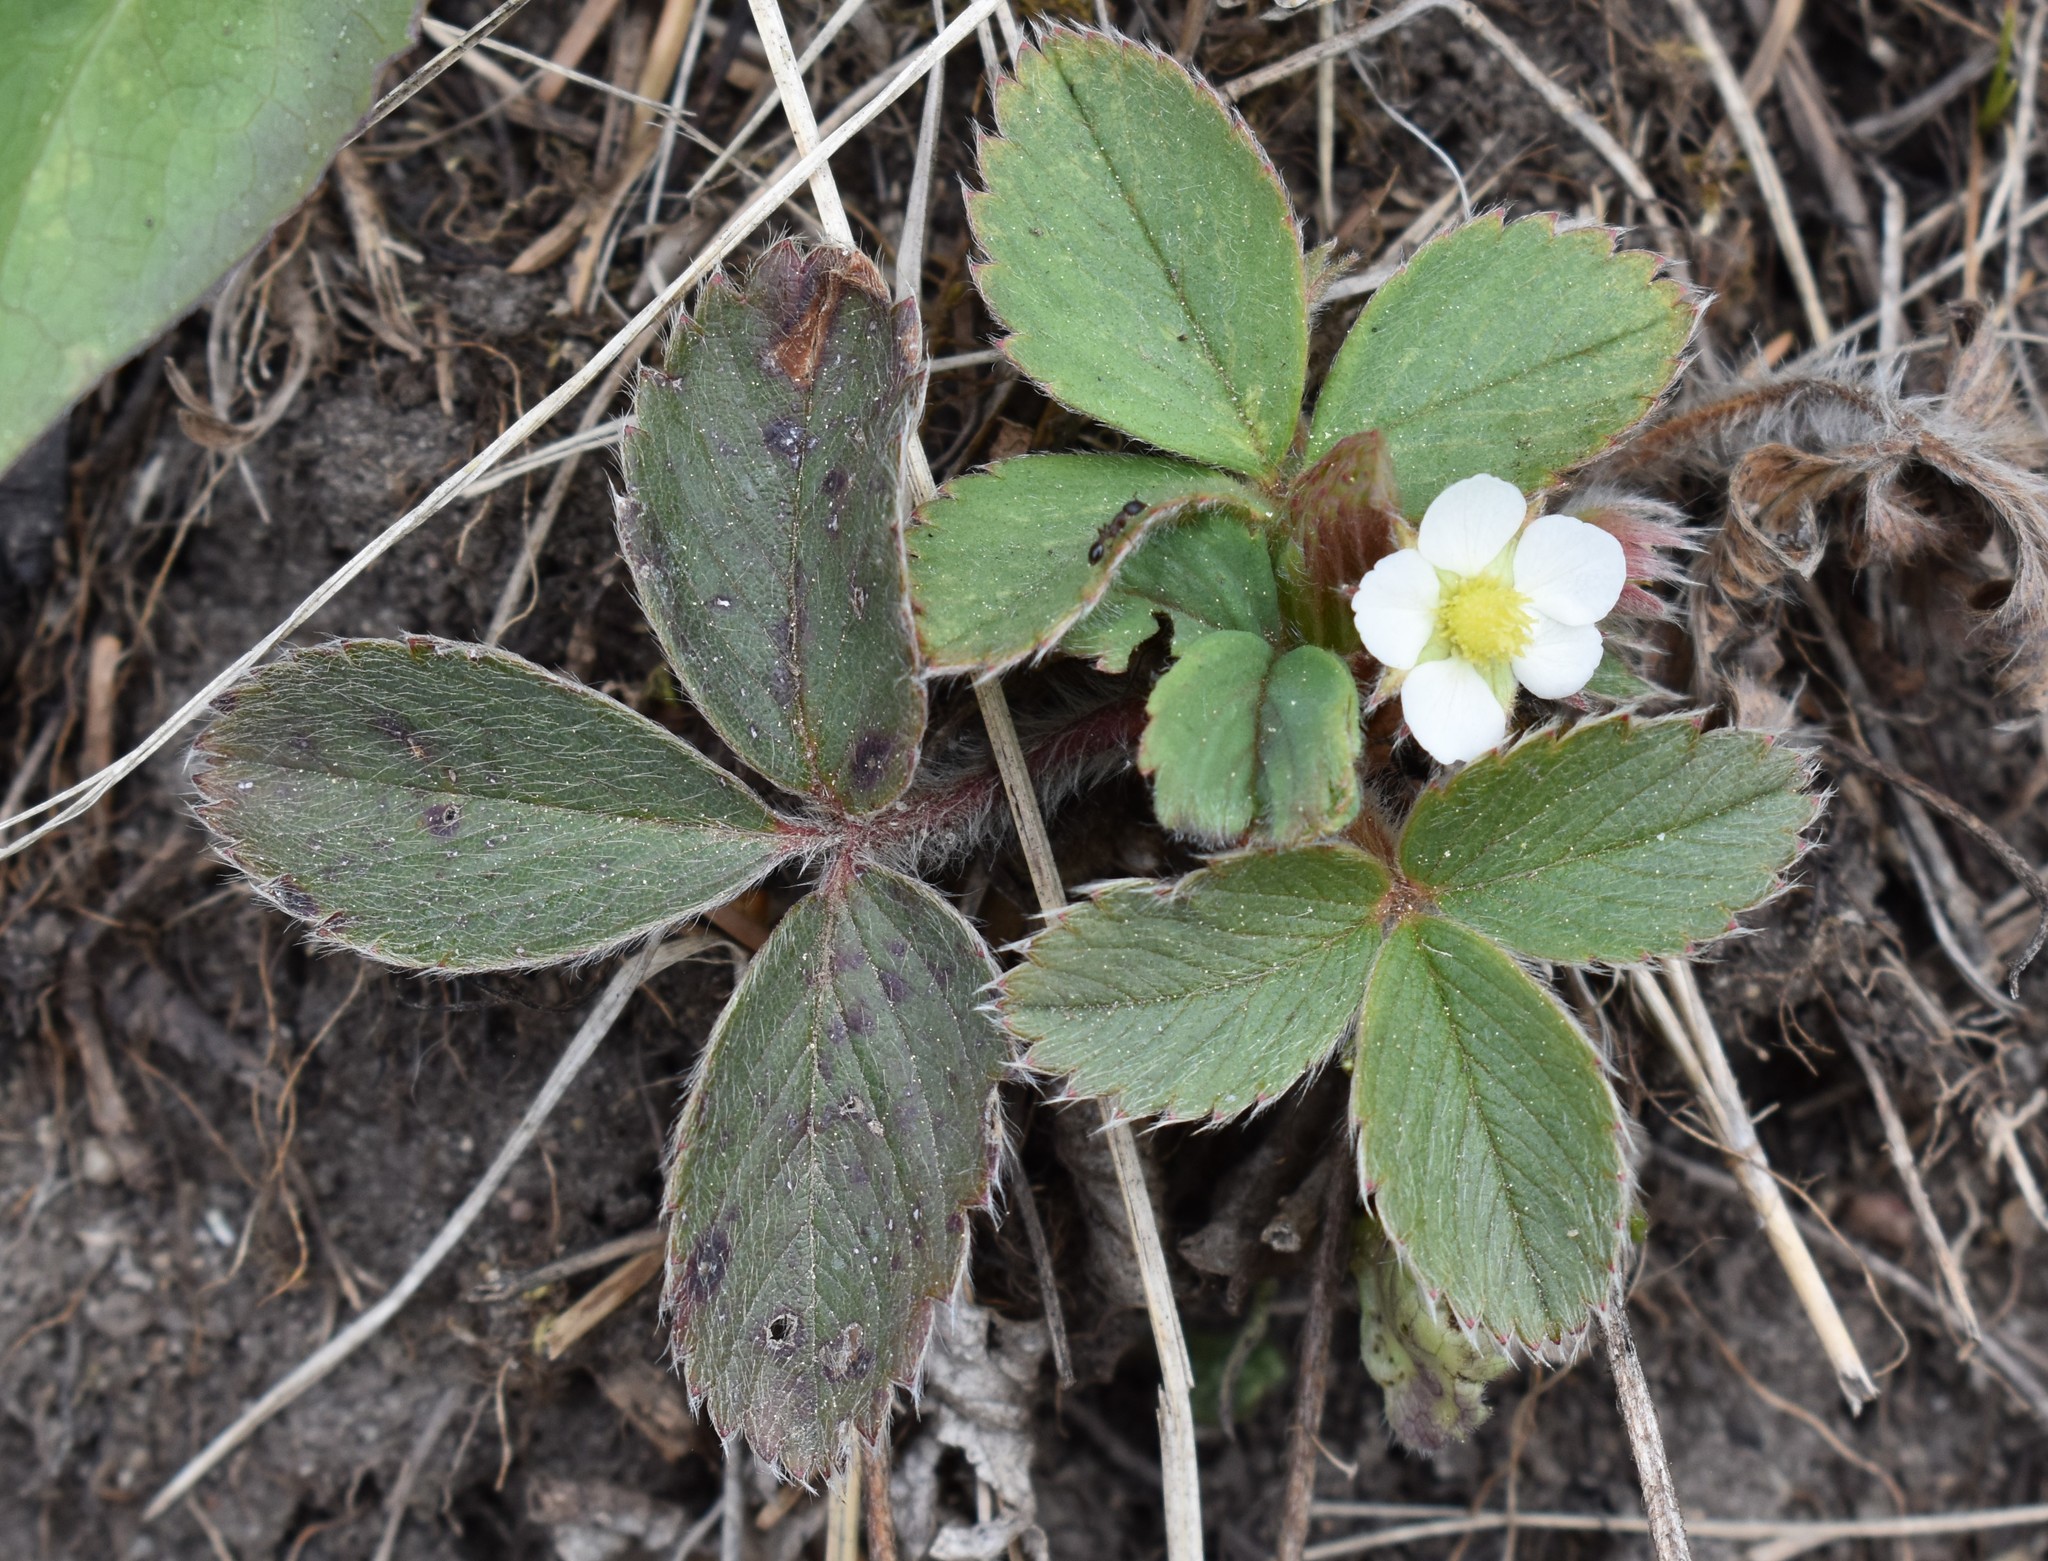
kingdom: Plantae
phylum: Tracheophyta
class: Magnoliopsida
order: Rosales
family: Rosaceae
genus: Fragaria
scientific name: Fragaria virginiana
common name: Thickleaved wild strawberry
